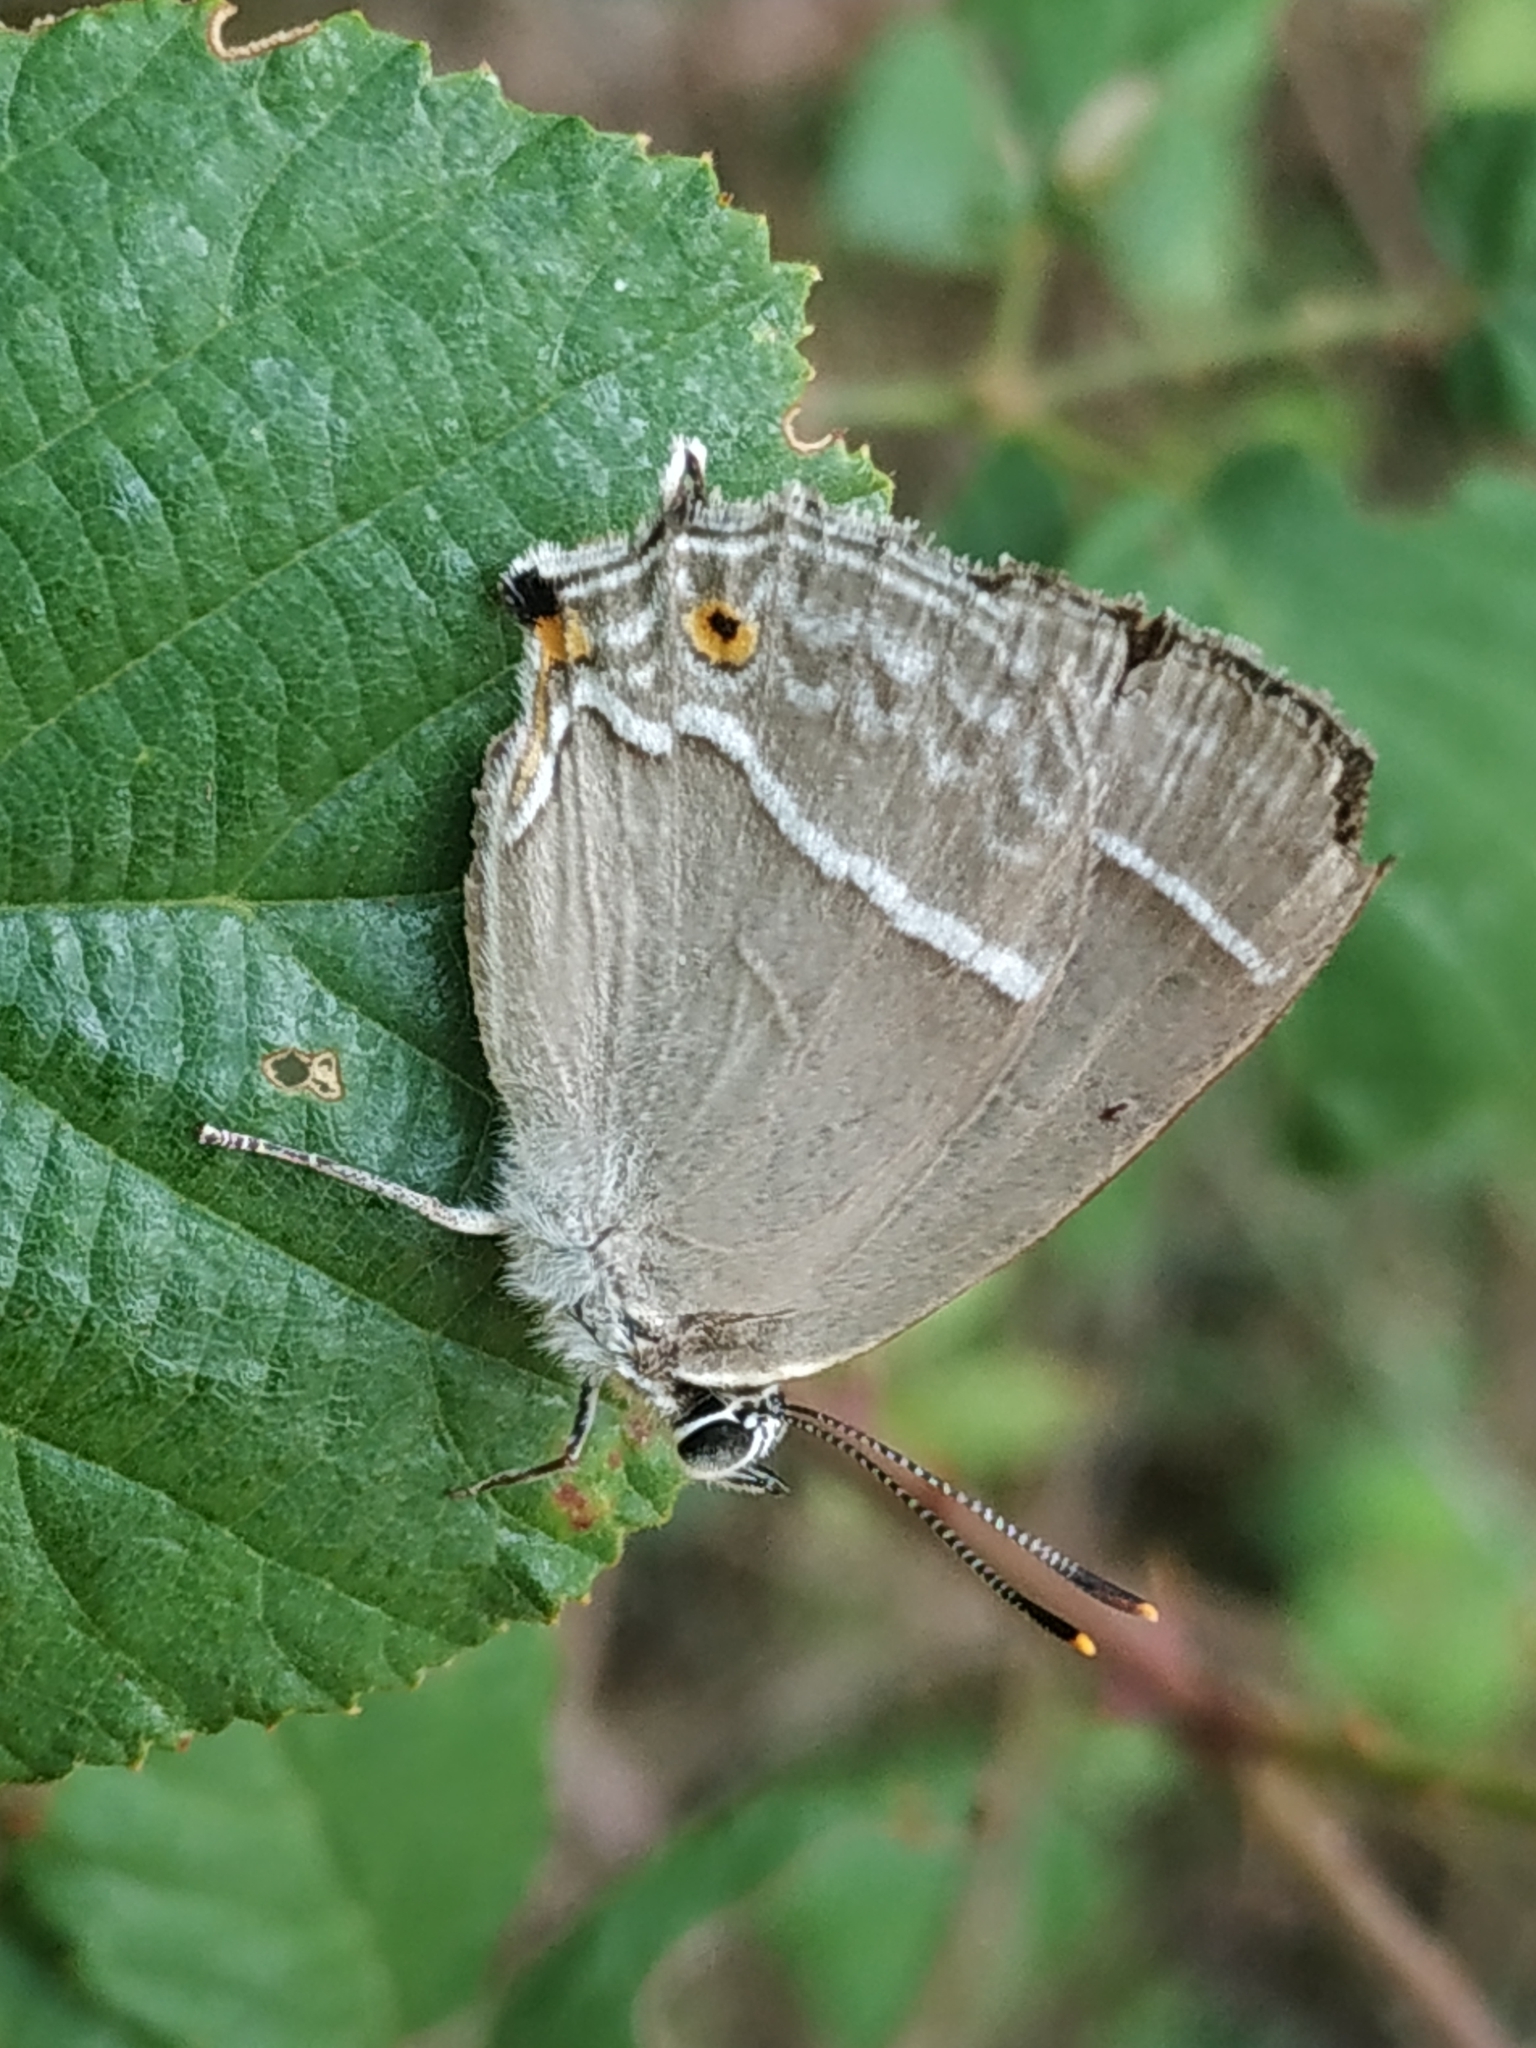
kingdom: Animalia
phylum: Arthropoda
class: Insecta
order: Lepidoptera
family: Lycaenidae
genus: Quercusia
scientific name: Quercusia quercus
